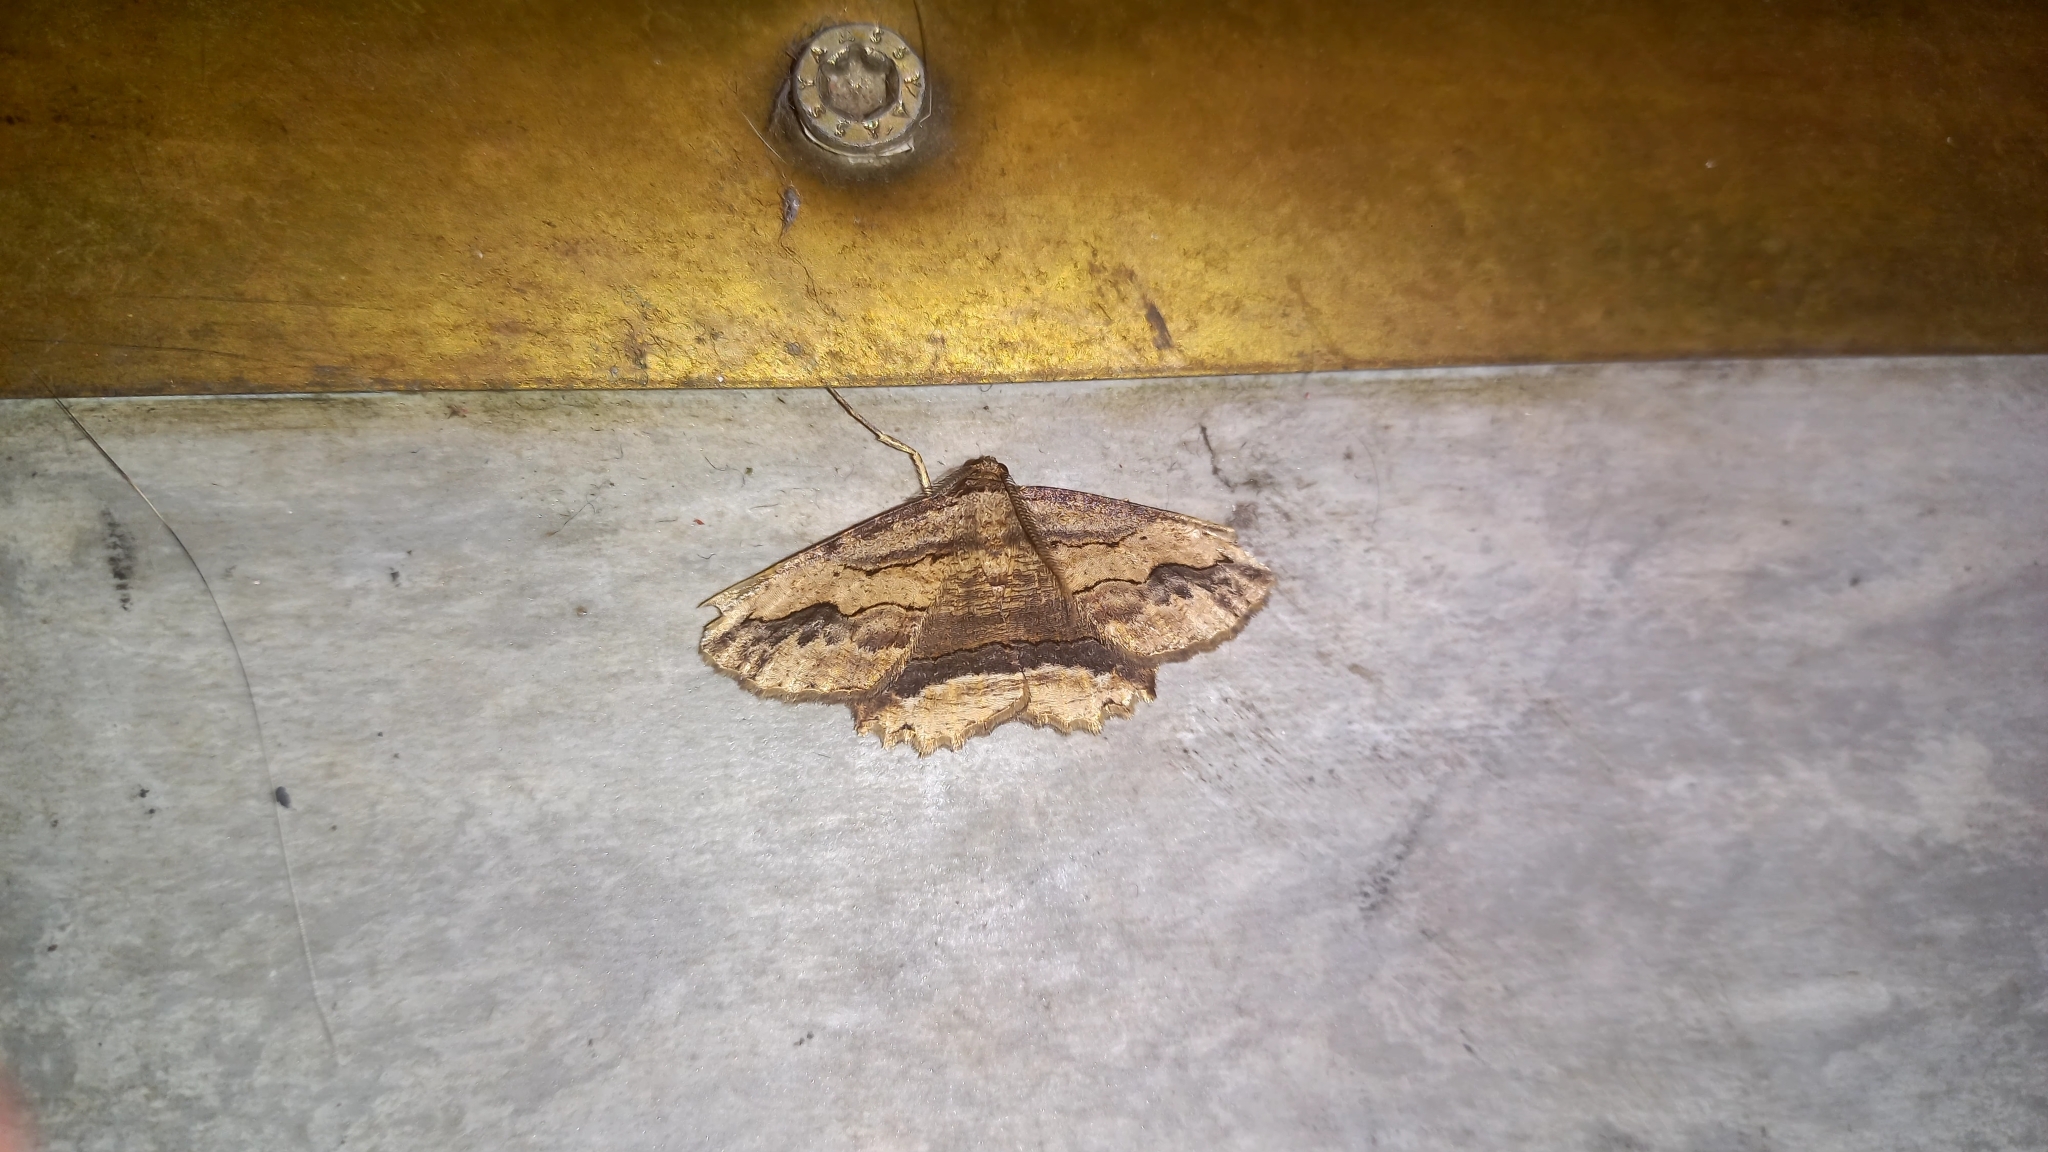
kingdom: Animalia
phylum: Arthropoda
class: Insecta
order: Lepidoptera
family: Geometridae
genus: Menophra
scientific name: Menophra abruptaria
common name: Waved umber
